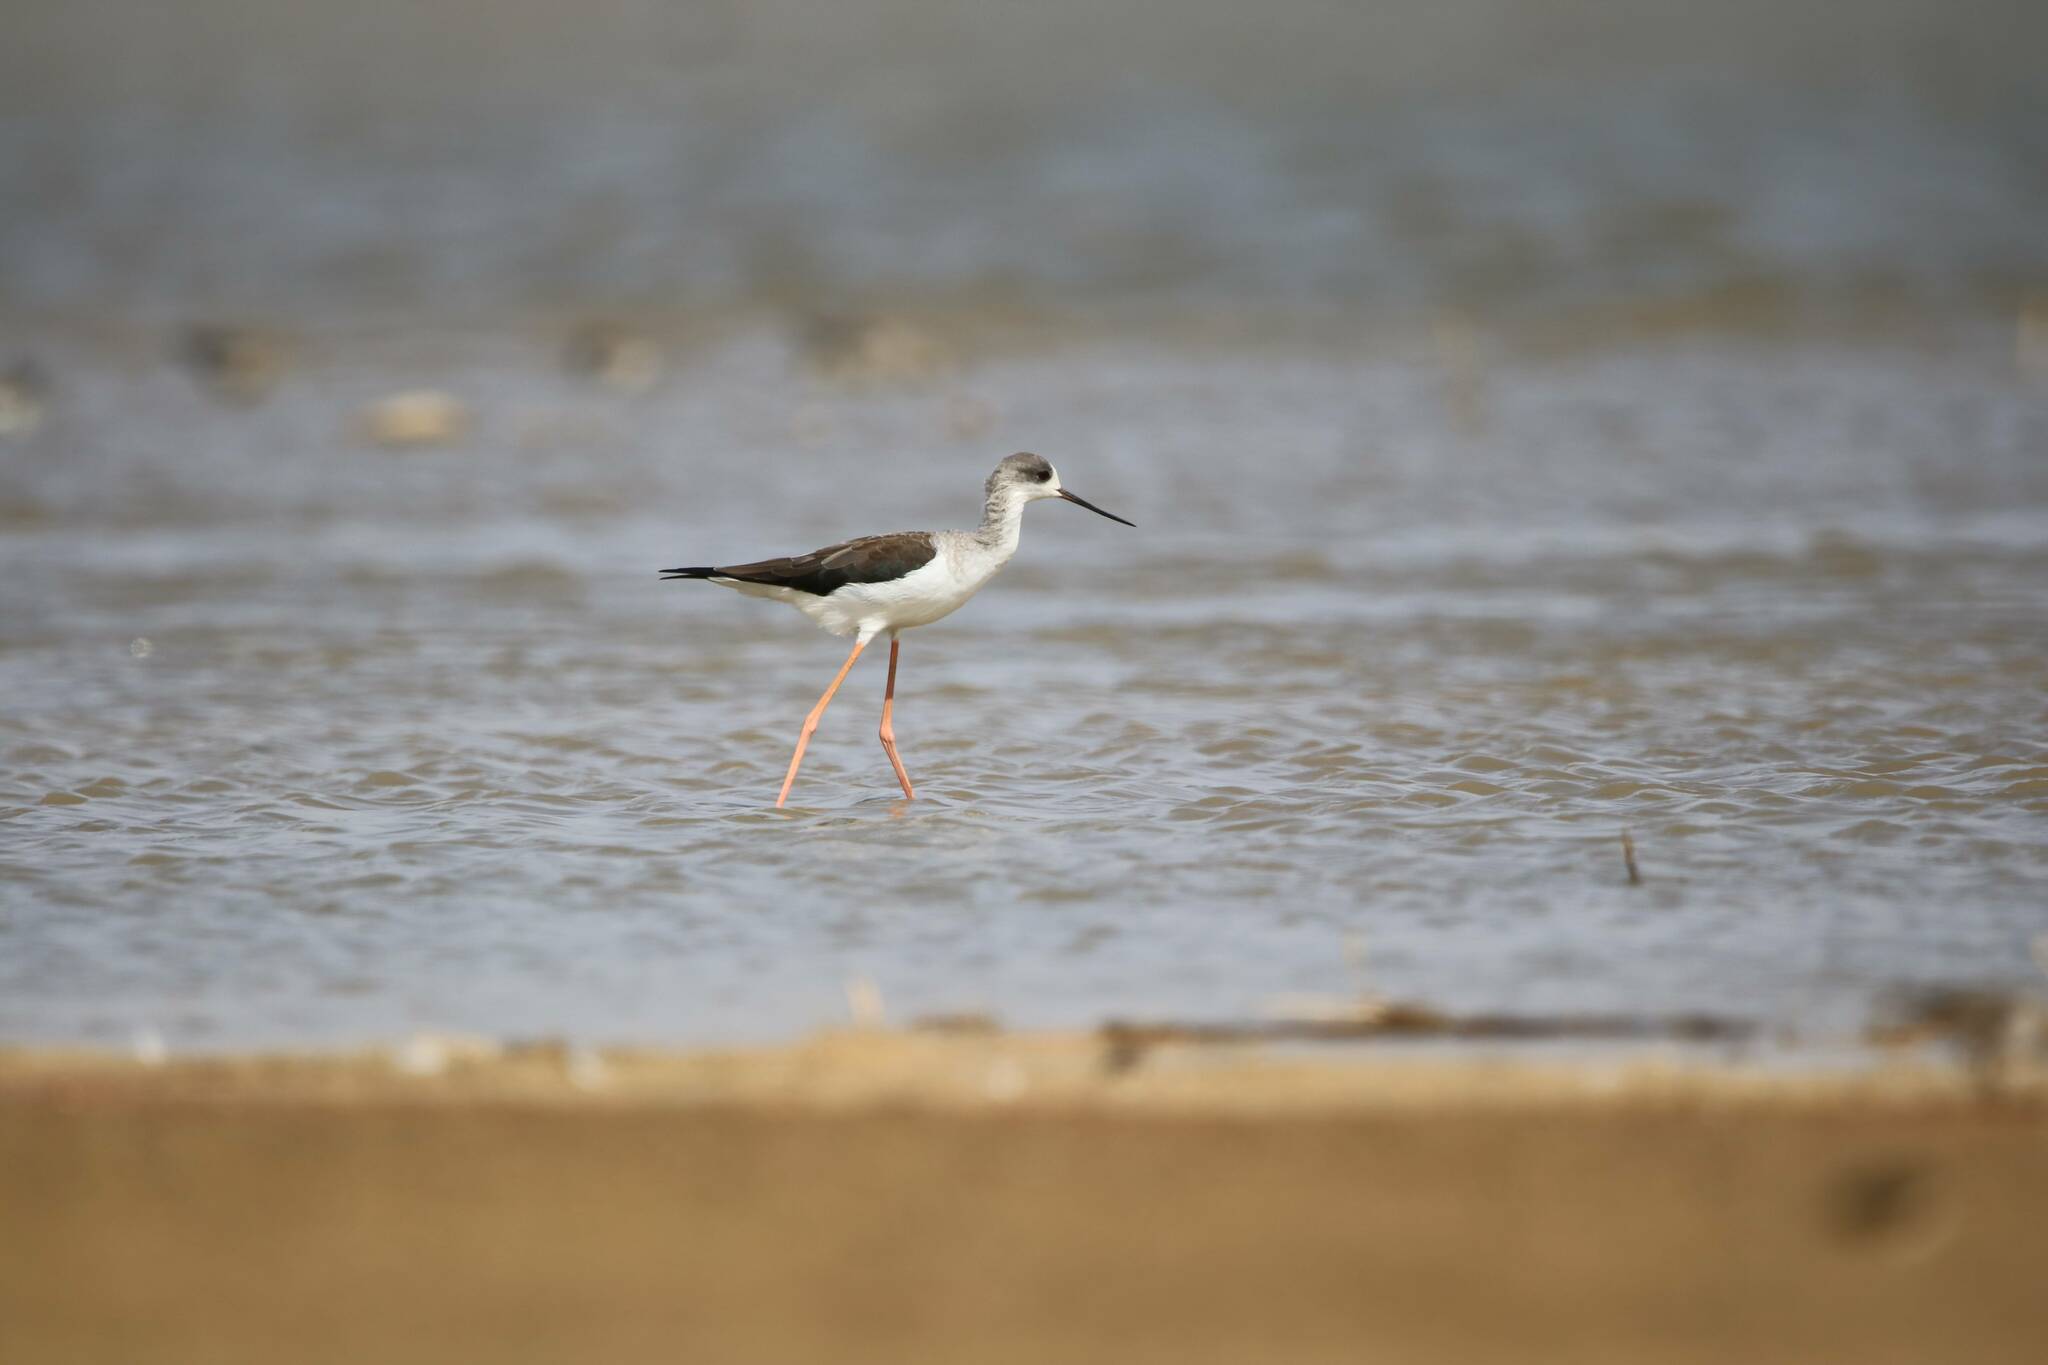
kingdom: Animalia
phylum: Chordata
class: Aves
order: Charadriiformes
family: Recurvirostridae
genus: Himantopus
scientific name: Himantopus himantopus
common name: Black-winged stilt
